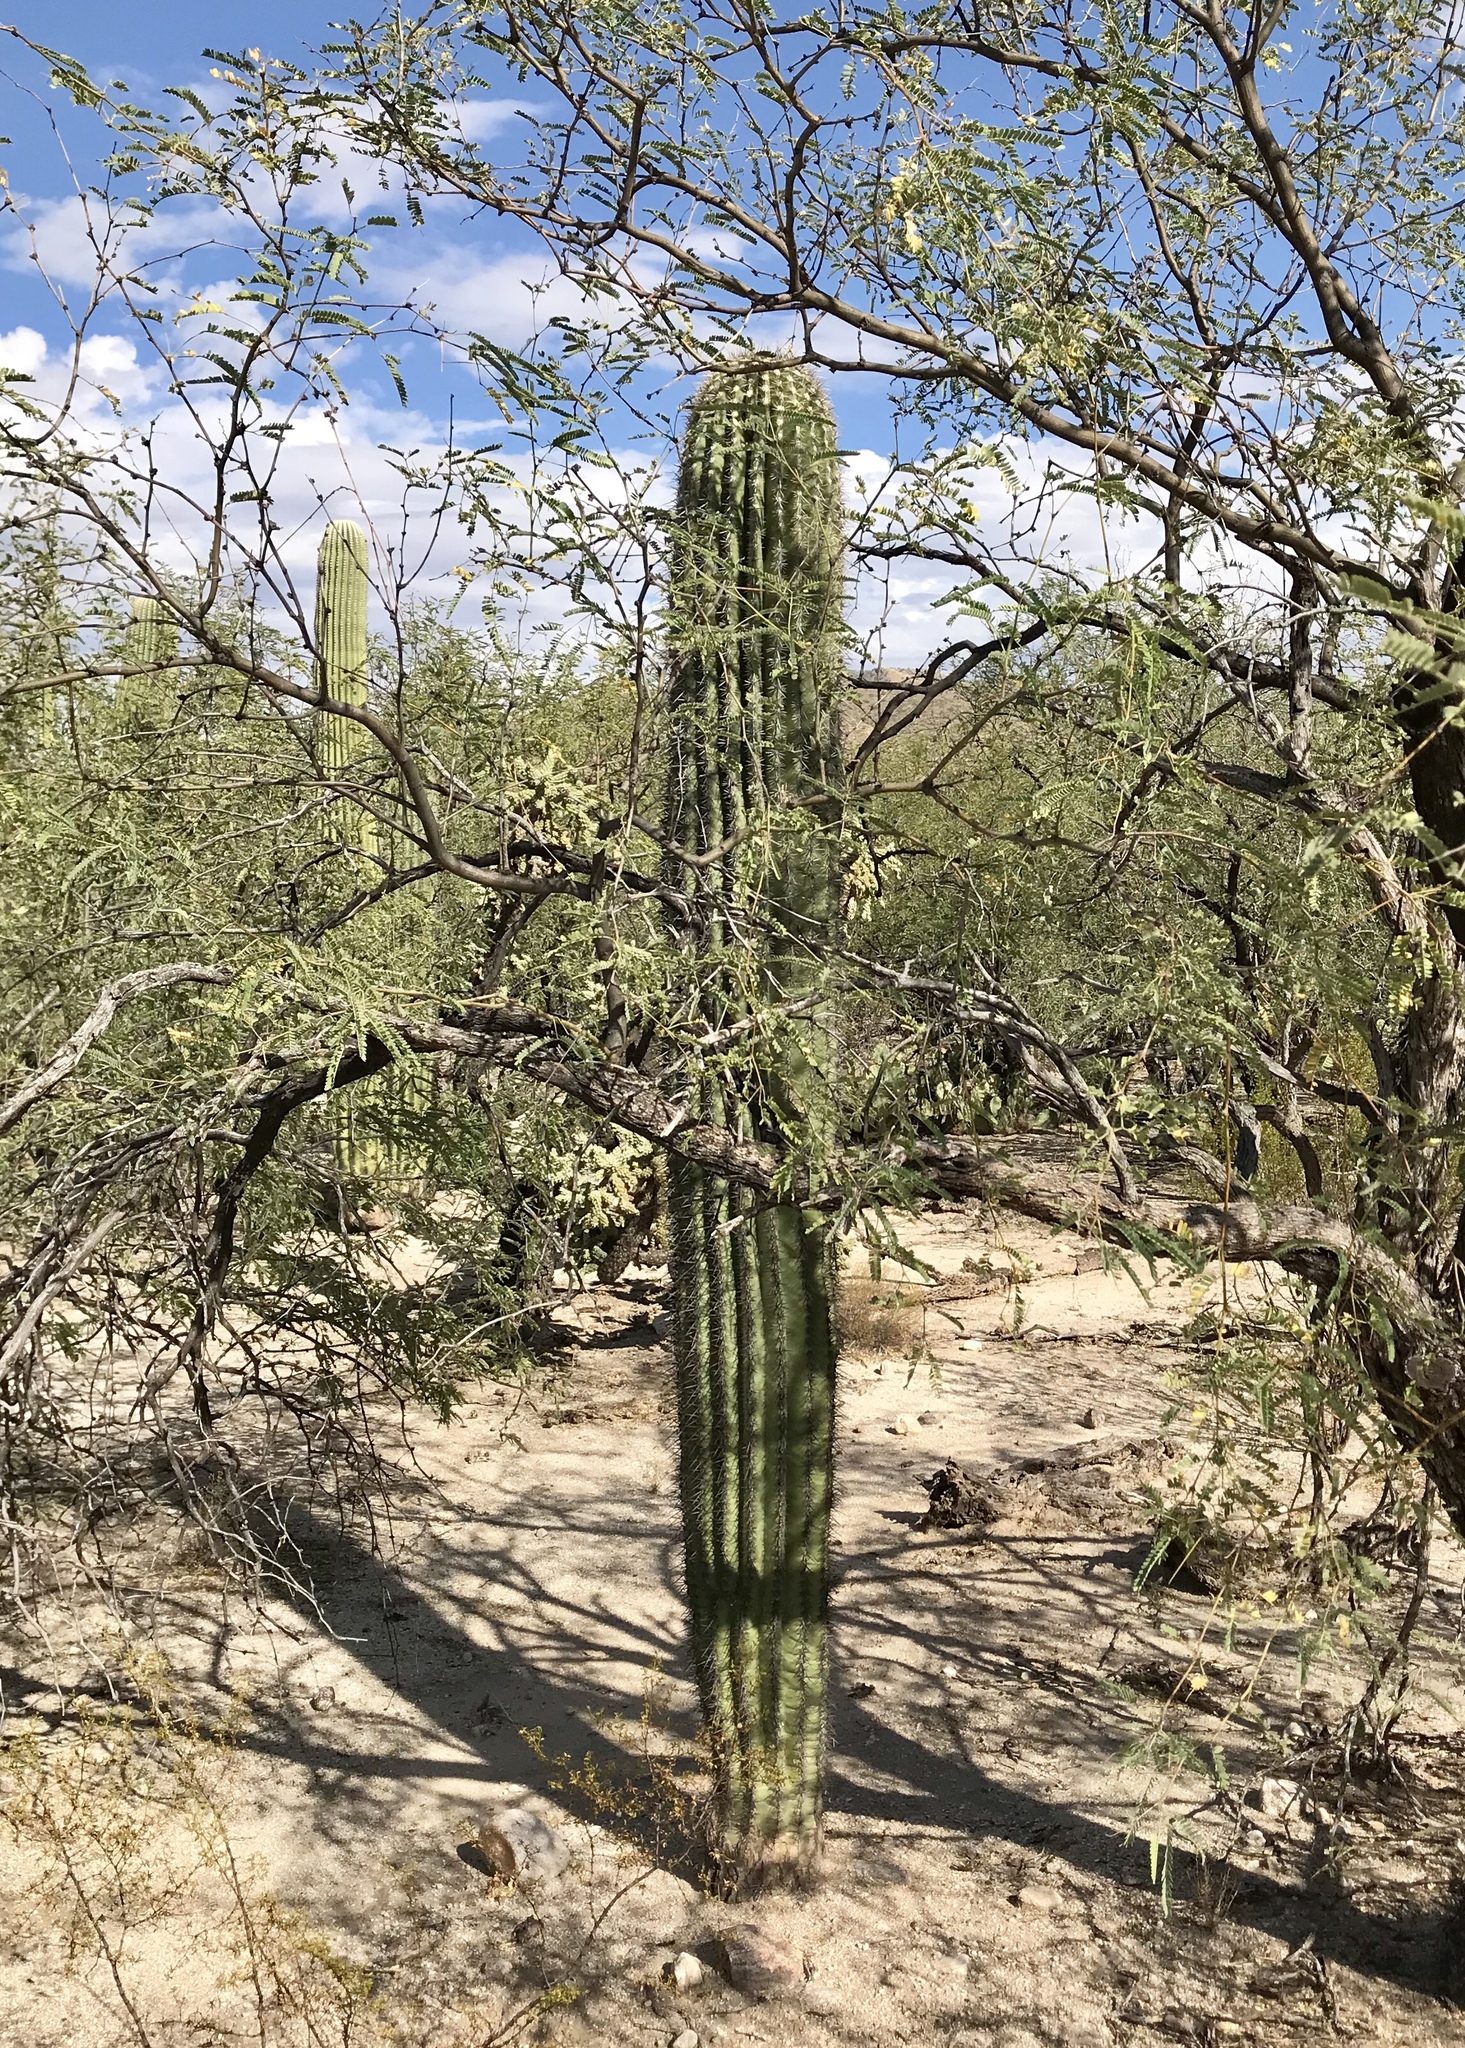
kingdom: Plantae
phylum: Tracheophyta
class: Magnoliopsida
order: Caryophyllales
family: Cactaceae
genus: Carnegiea
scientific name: Carnegiea gigantea
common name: Saguaro
